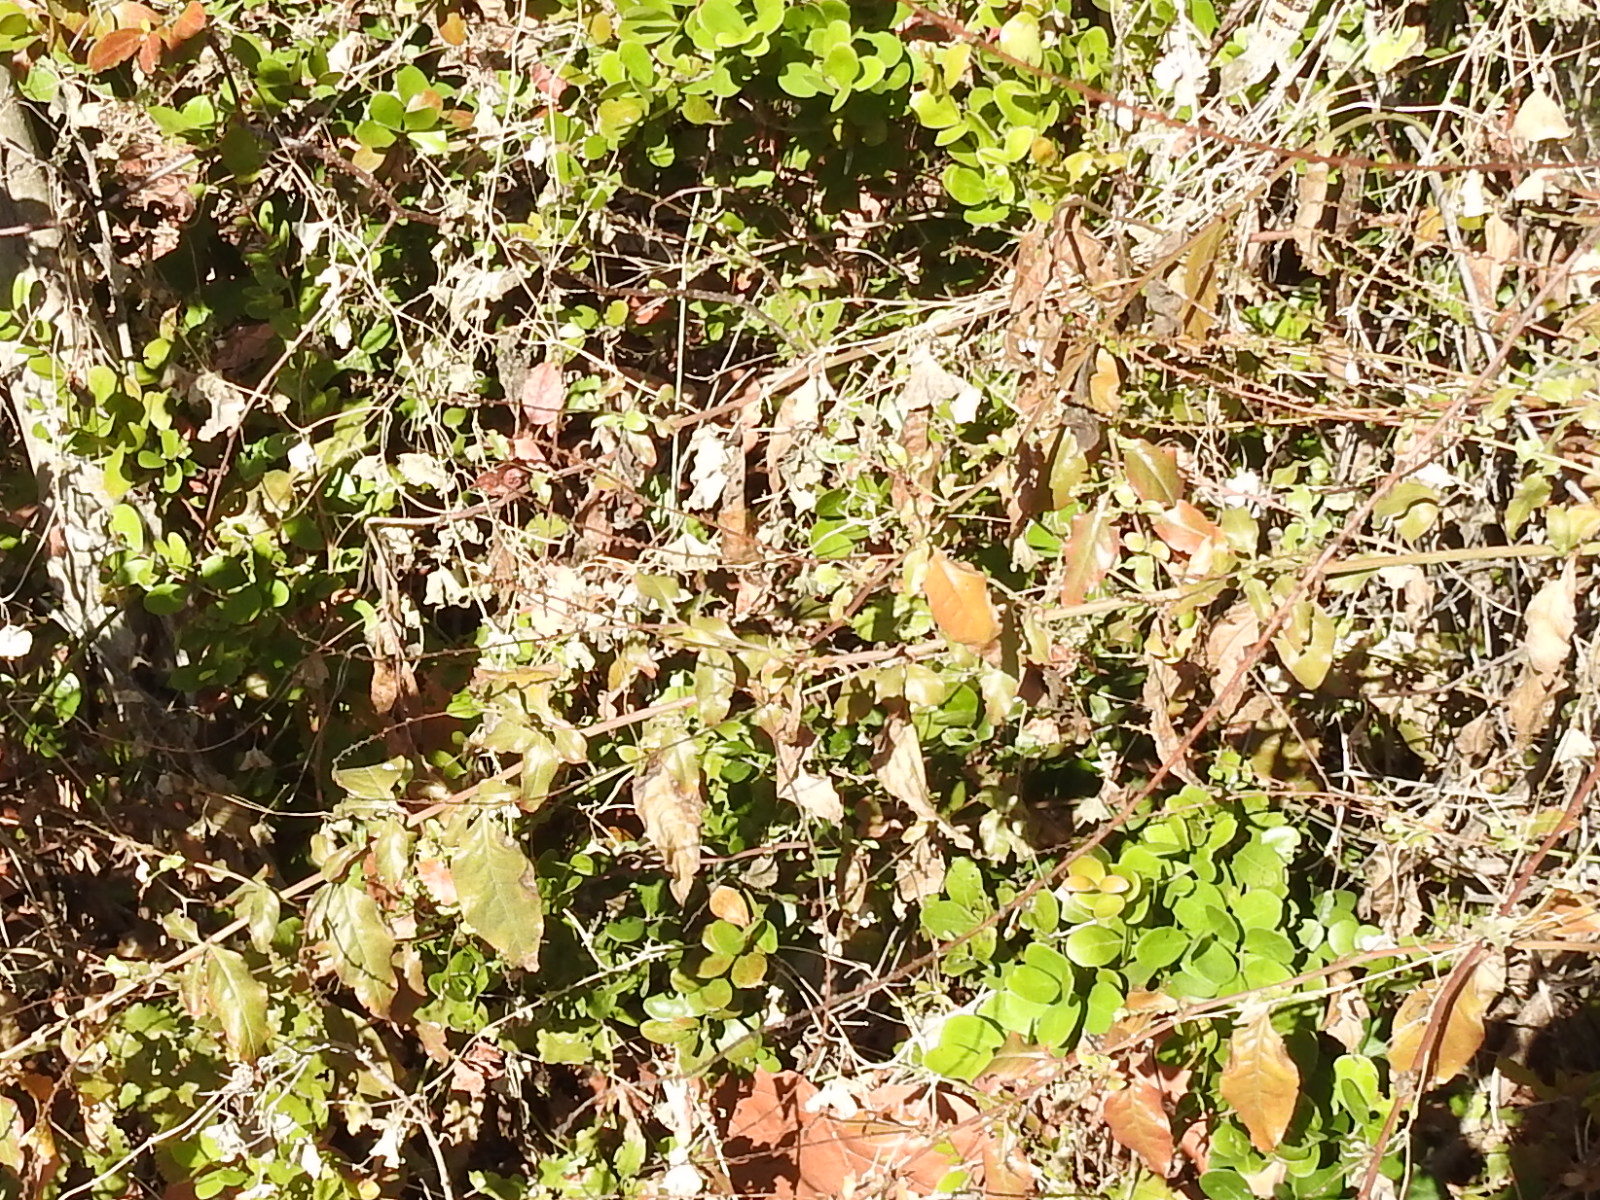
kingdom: Plantae
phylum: Tracheophyta
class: Magnoliopsida
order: Caryophyllales
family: Plumbaginaceae
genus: Plumbago
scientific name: Plumbago zeylanica
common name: Doctorbush
